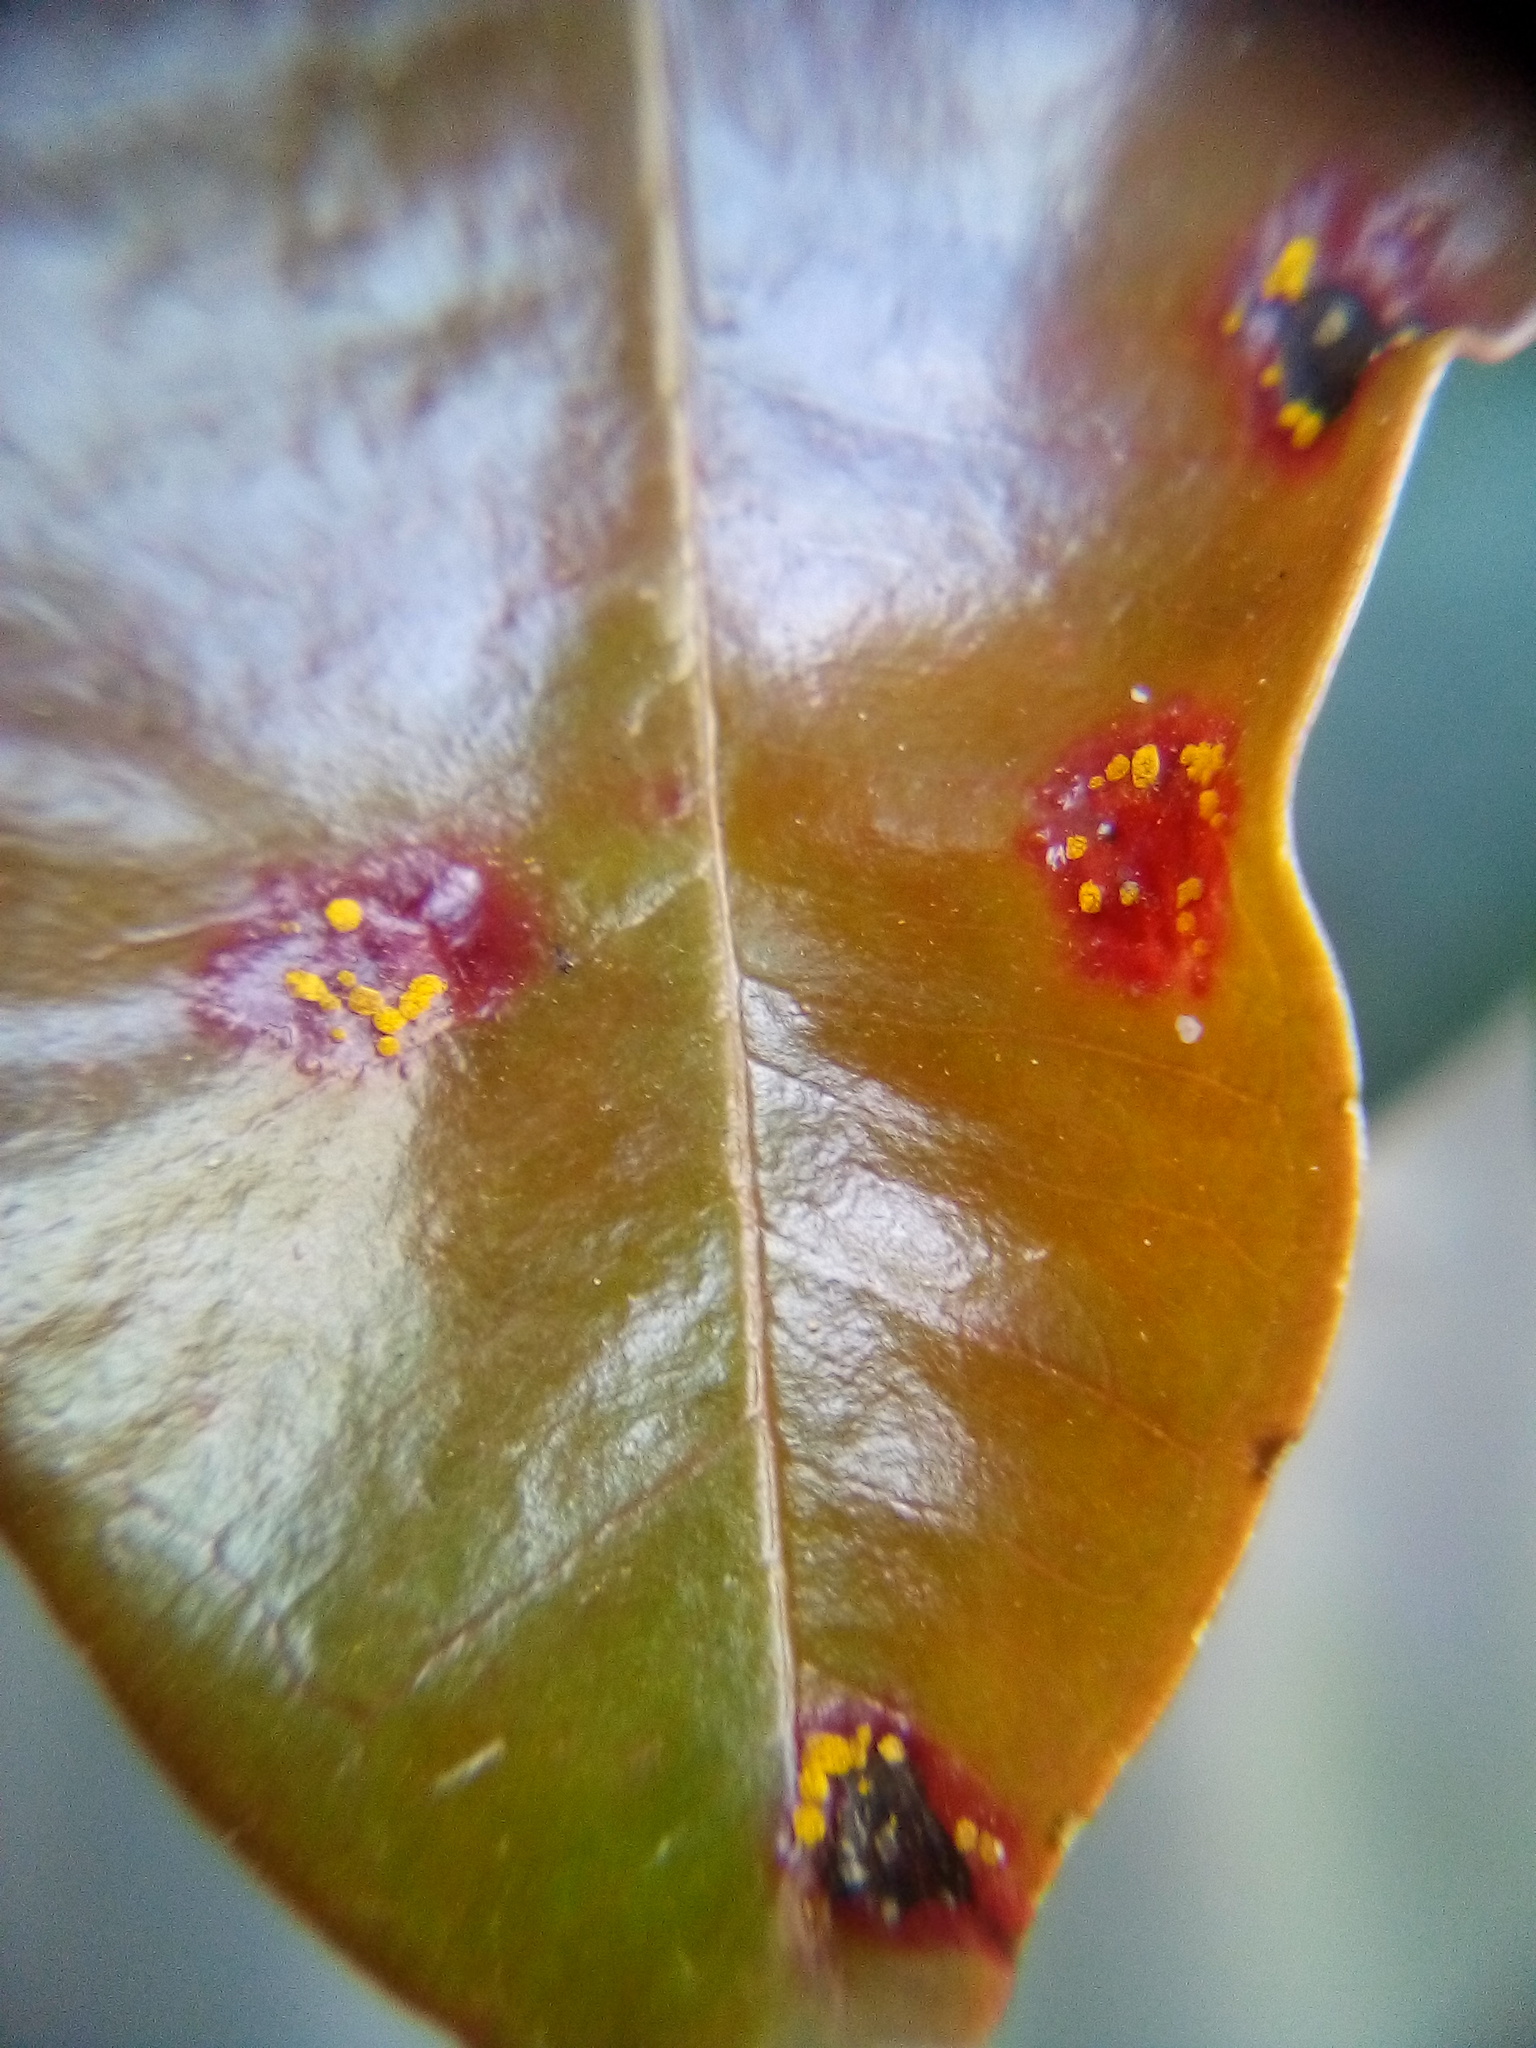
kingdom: Fungi
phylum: Basidiomycota
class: Pucciniomycetes
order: Pucciniales
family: Sphaerophragmiaceae
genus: Austropuccinia
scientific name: Austropuccinia psidii
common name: Myrtle rust
